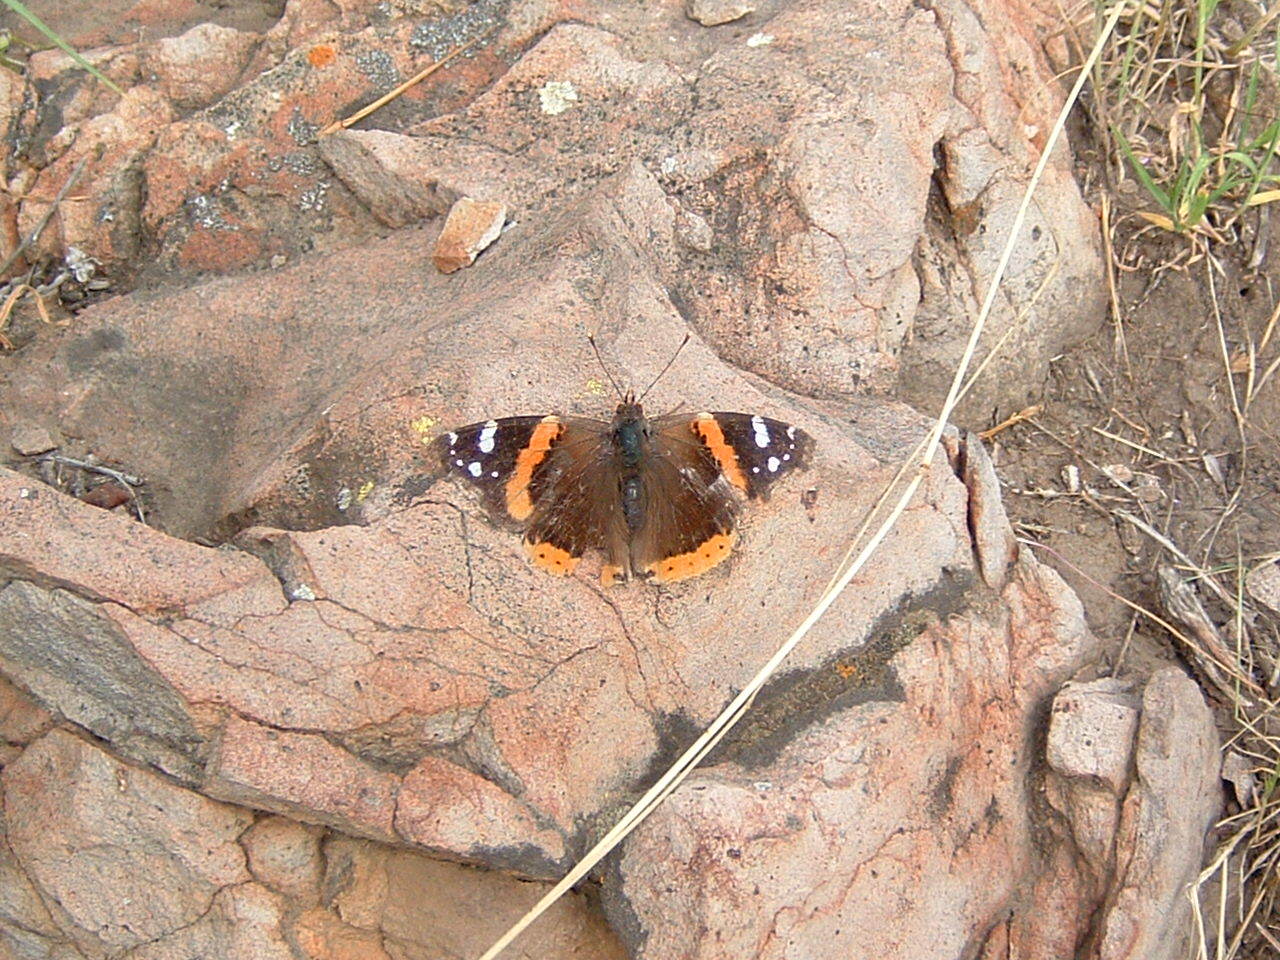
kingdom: Animalia
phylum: Arthropoda
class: Insecta
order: Lepidoptera
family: Nymphalidae
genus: Vanessa
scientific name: Vanessa atalanta
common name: Red admiral
